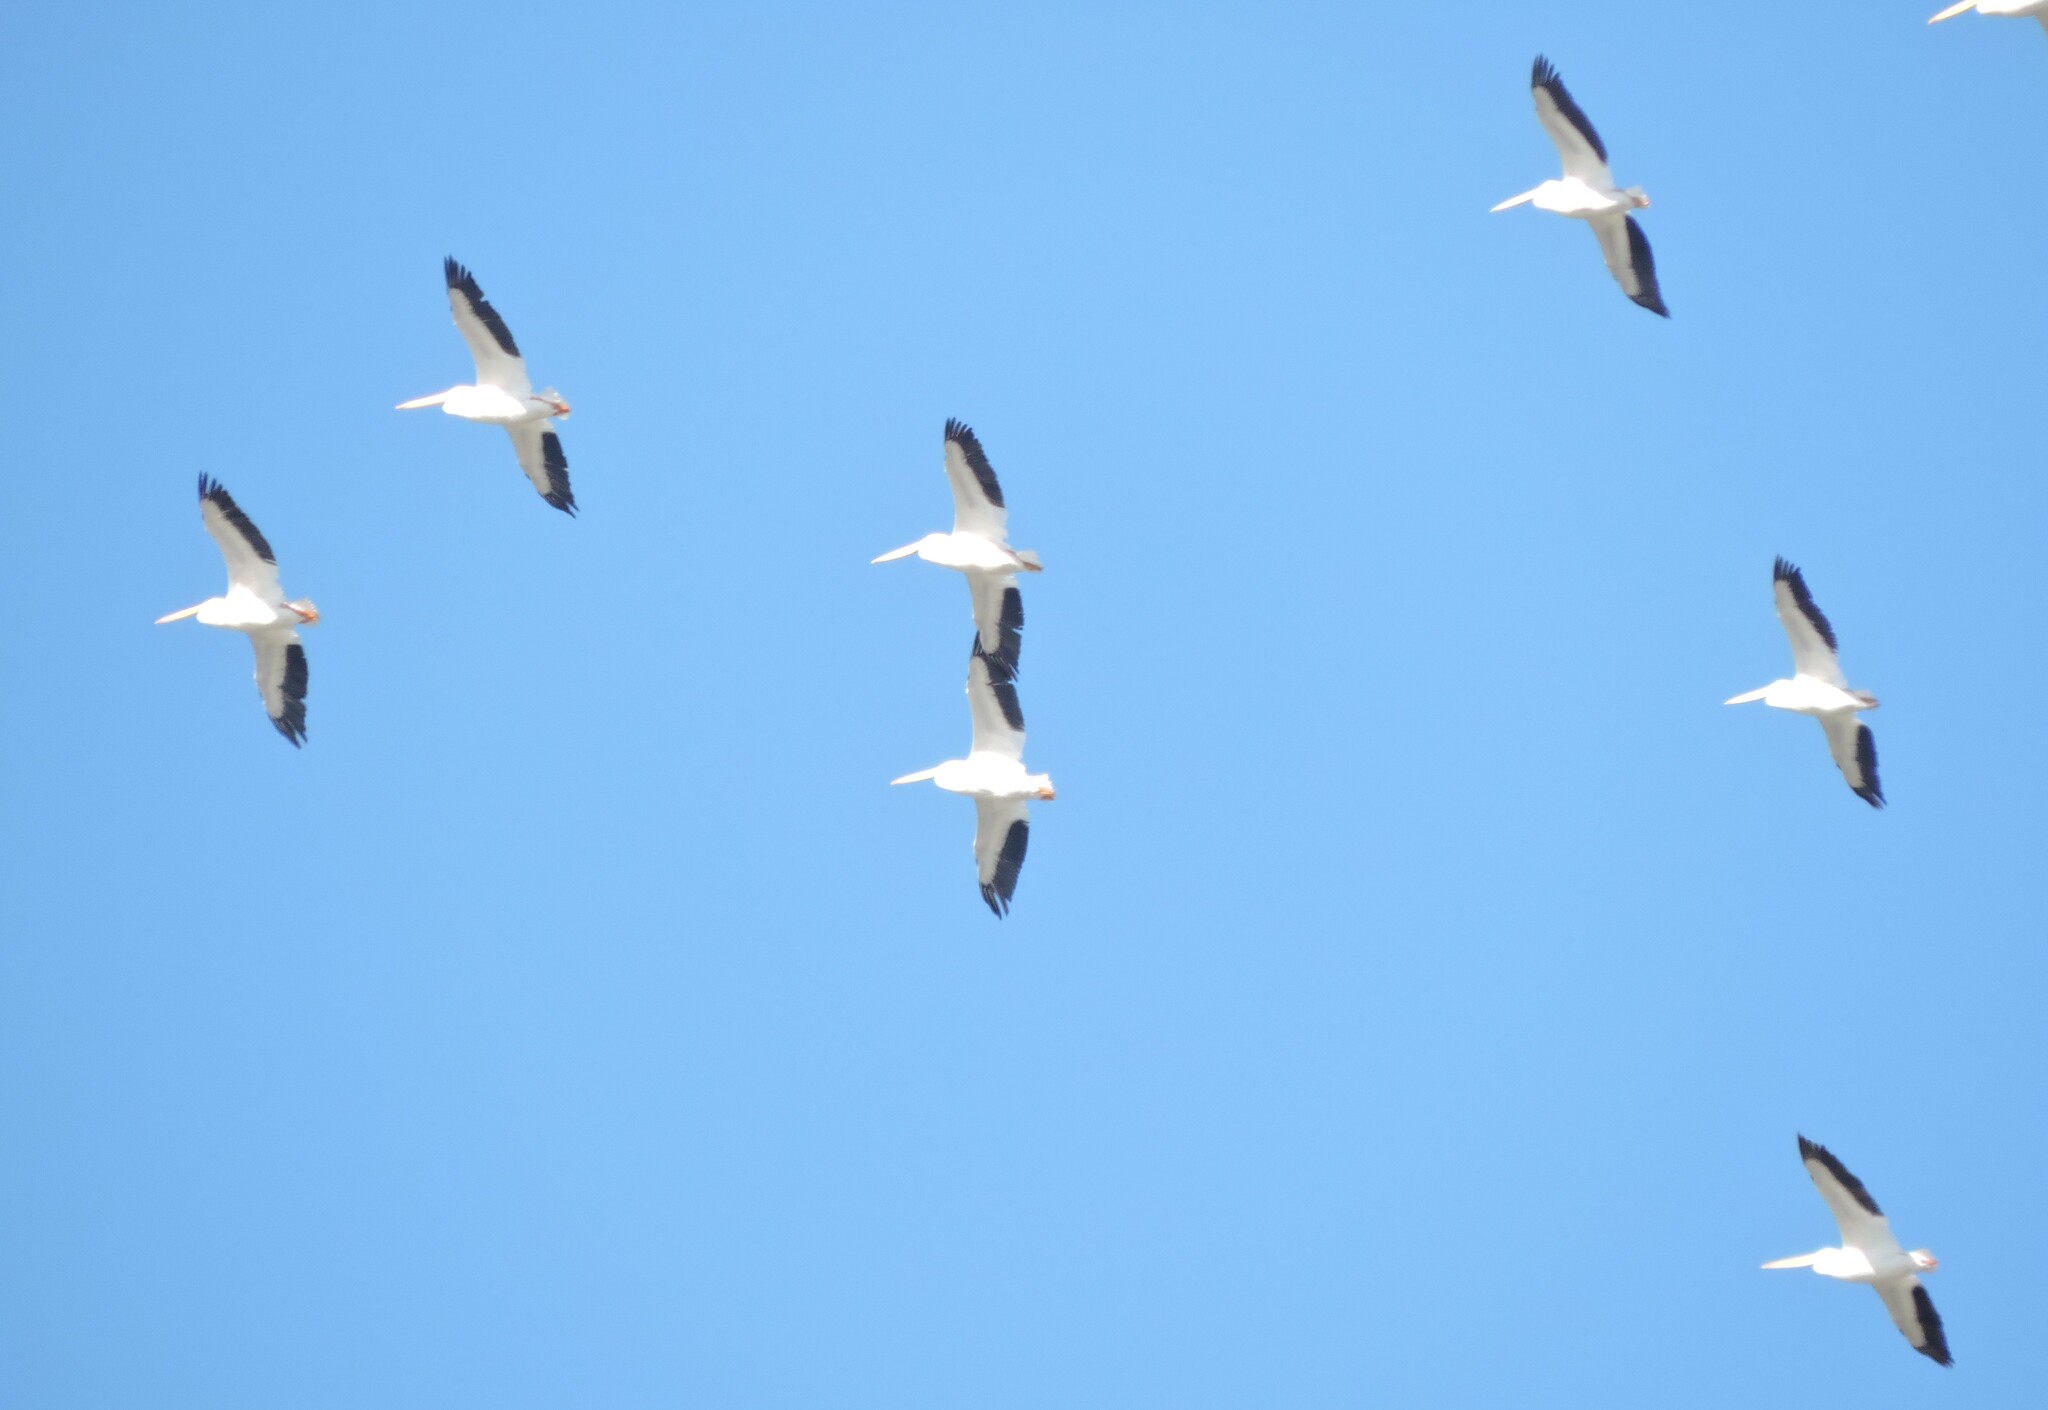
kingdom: Animalia
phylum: Chordata
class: Aves
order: Pelecaniformes
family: Pelecanidae
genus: Pelecanus
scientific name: Pelecanus erythrorhynchos
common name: American white pelican
